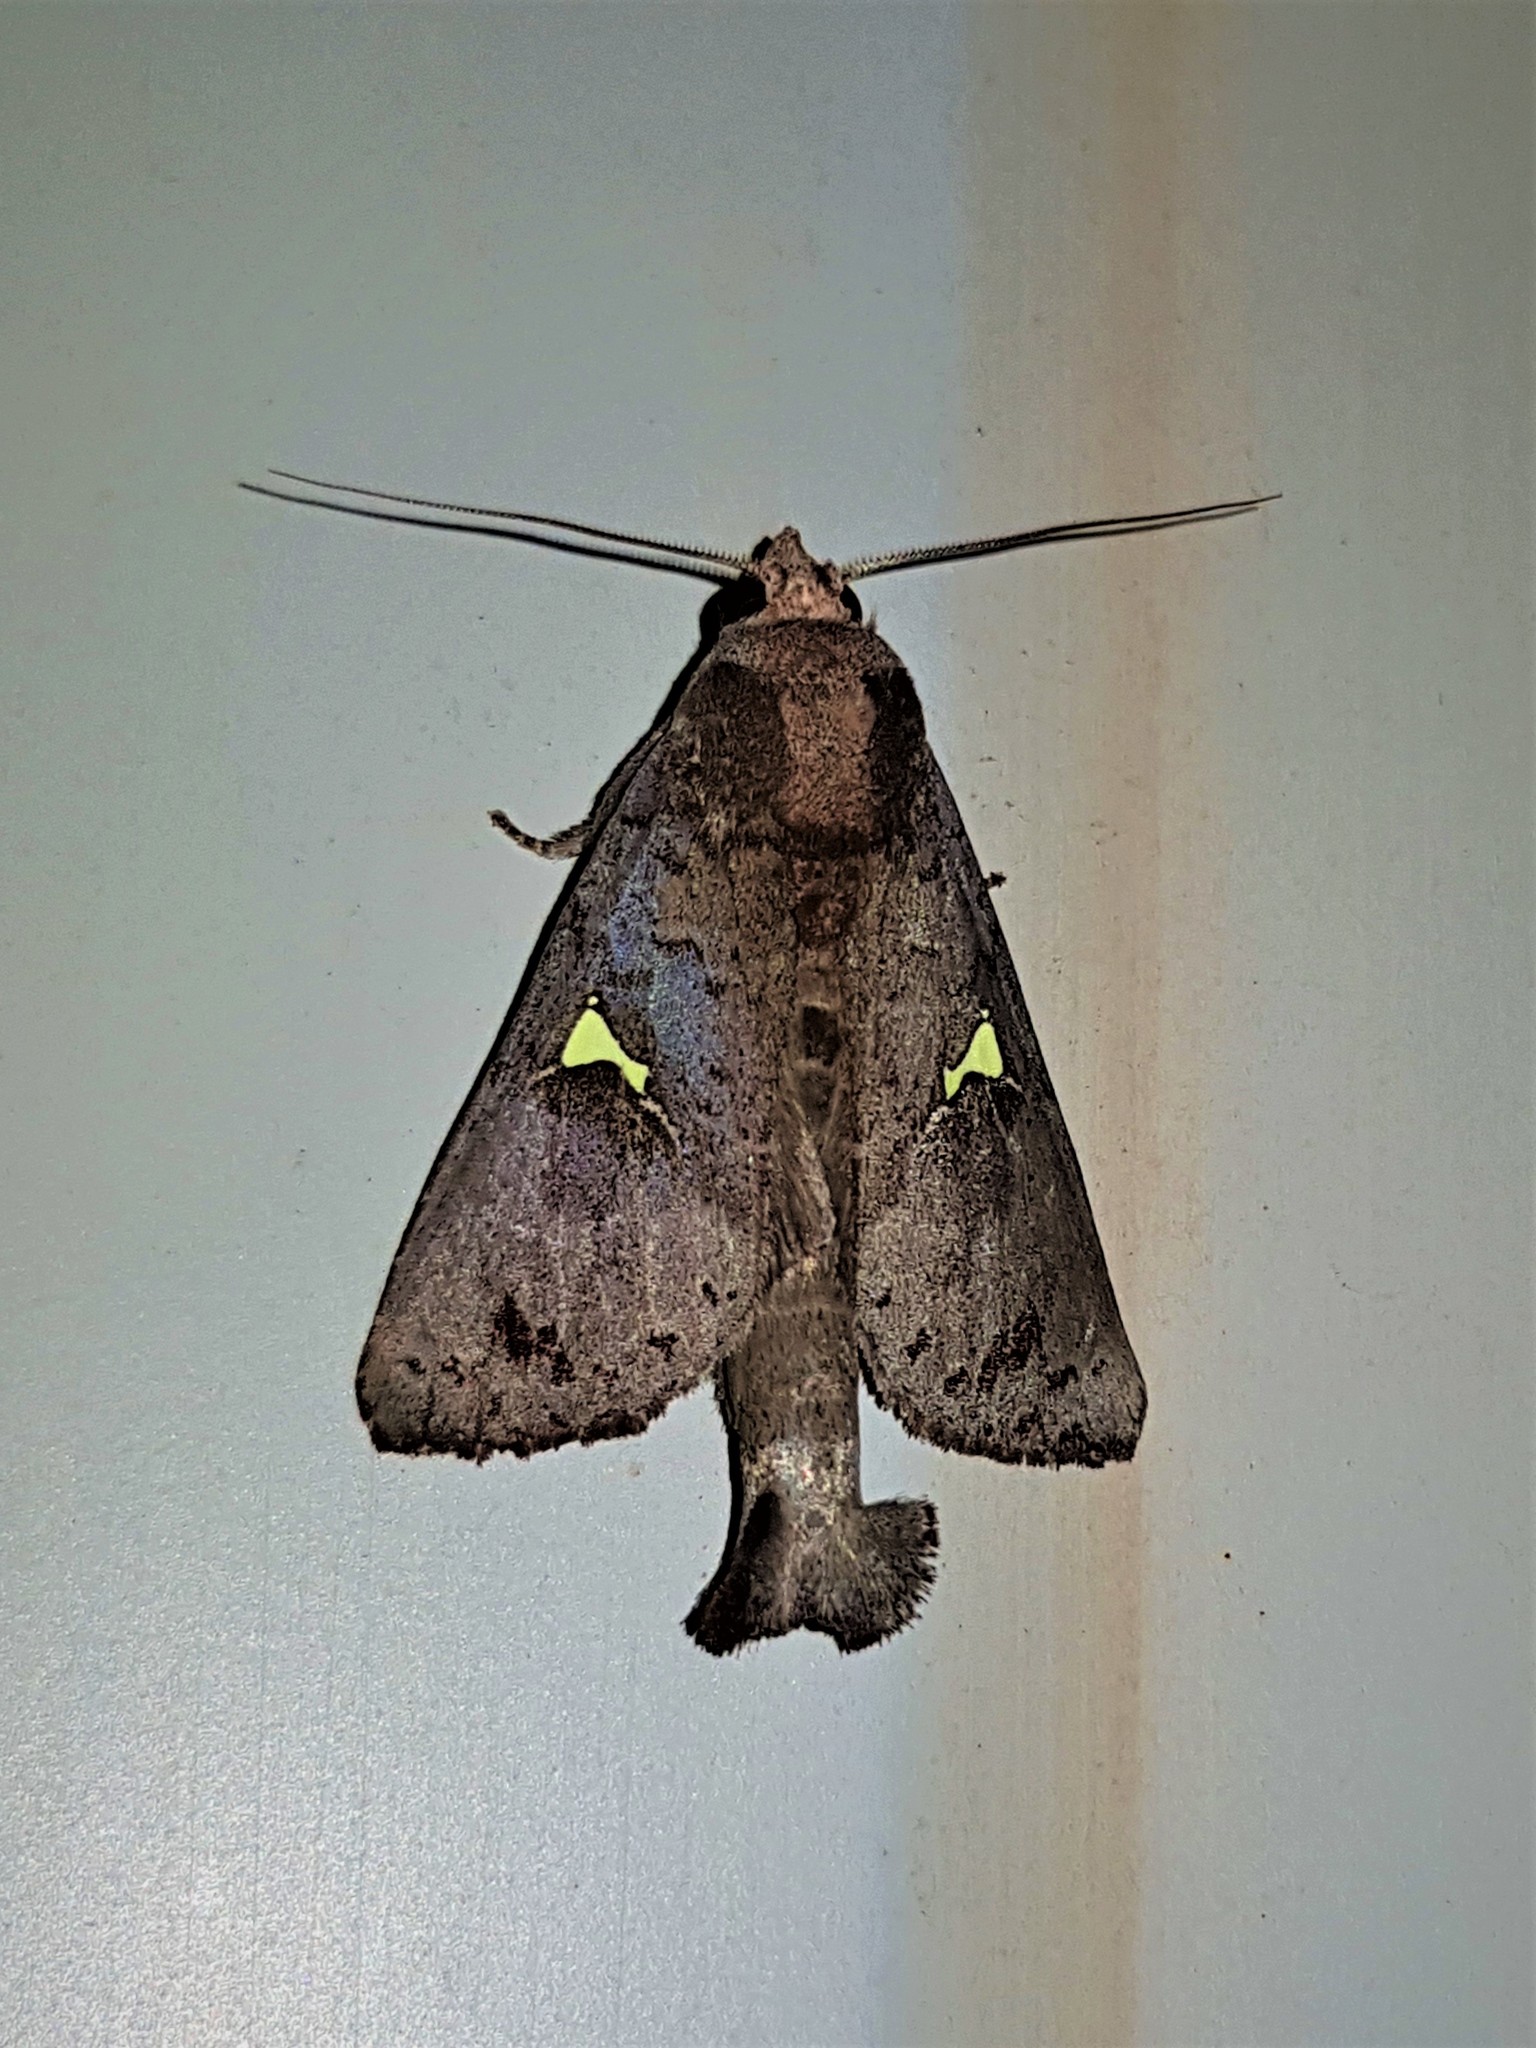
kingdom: Animalia
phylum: Arthropoda
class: Insecta
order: Lepidoptera
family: Notodontidae
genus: Sericochroa
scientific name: Sericochroa flavodiscata
